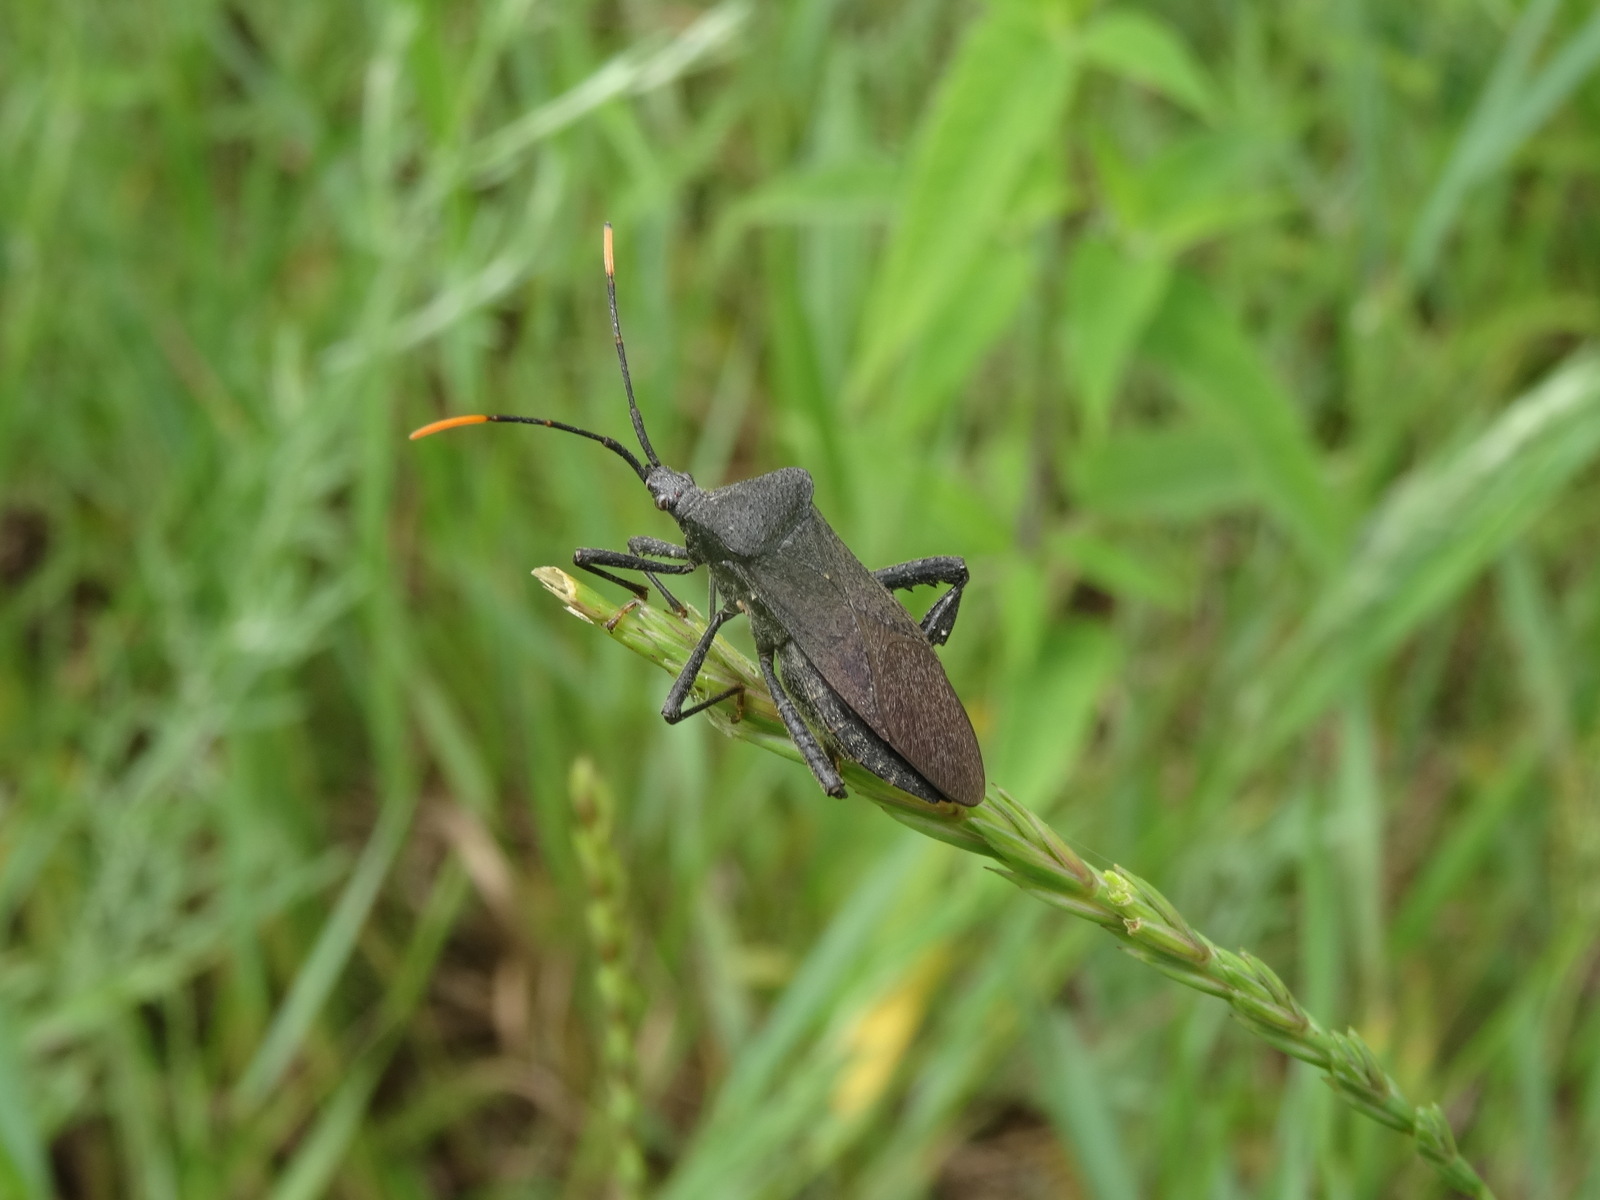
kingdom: Animalia
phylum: Arthropoda
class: Insecta
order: Hemiptera
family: Coreidae
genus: Acanthocephala
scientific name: Acanthocephala terminalis
